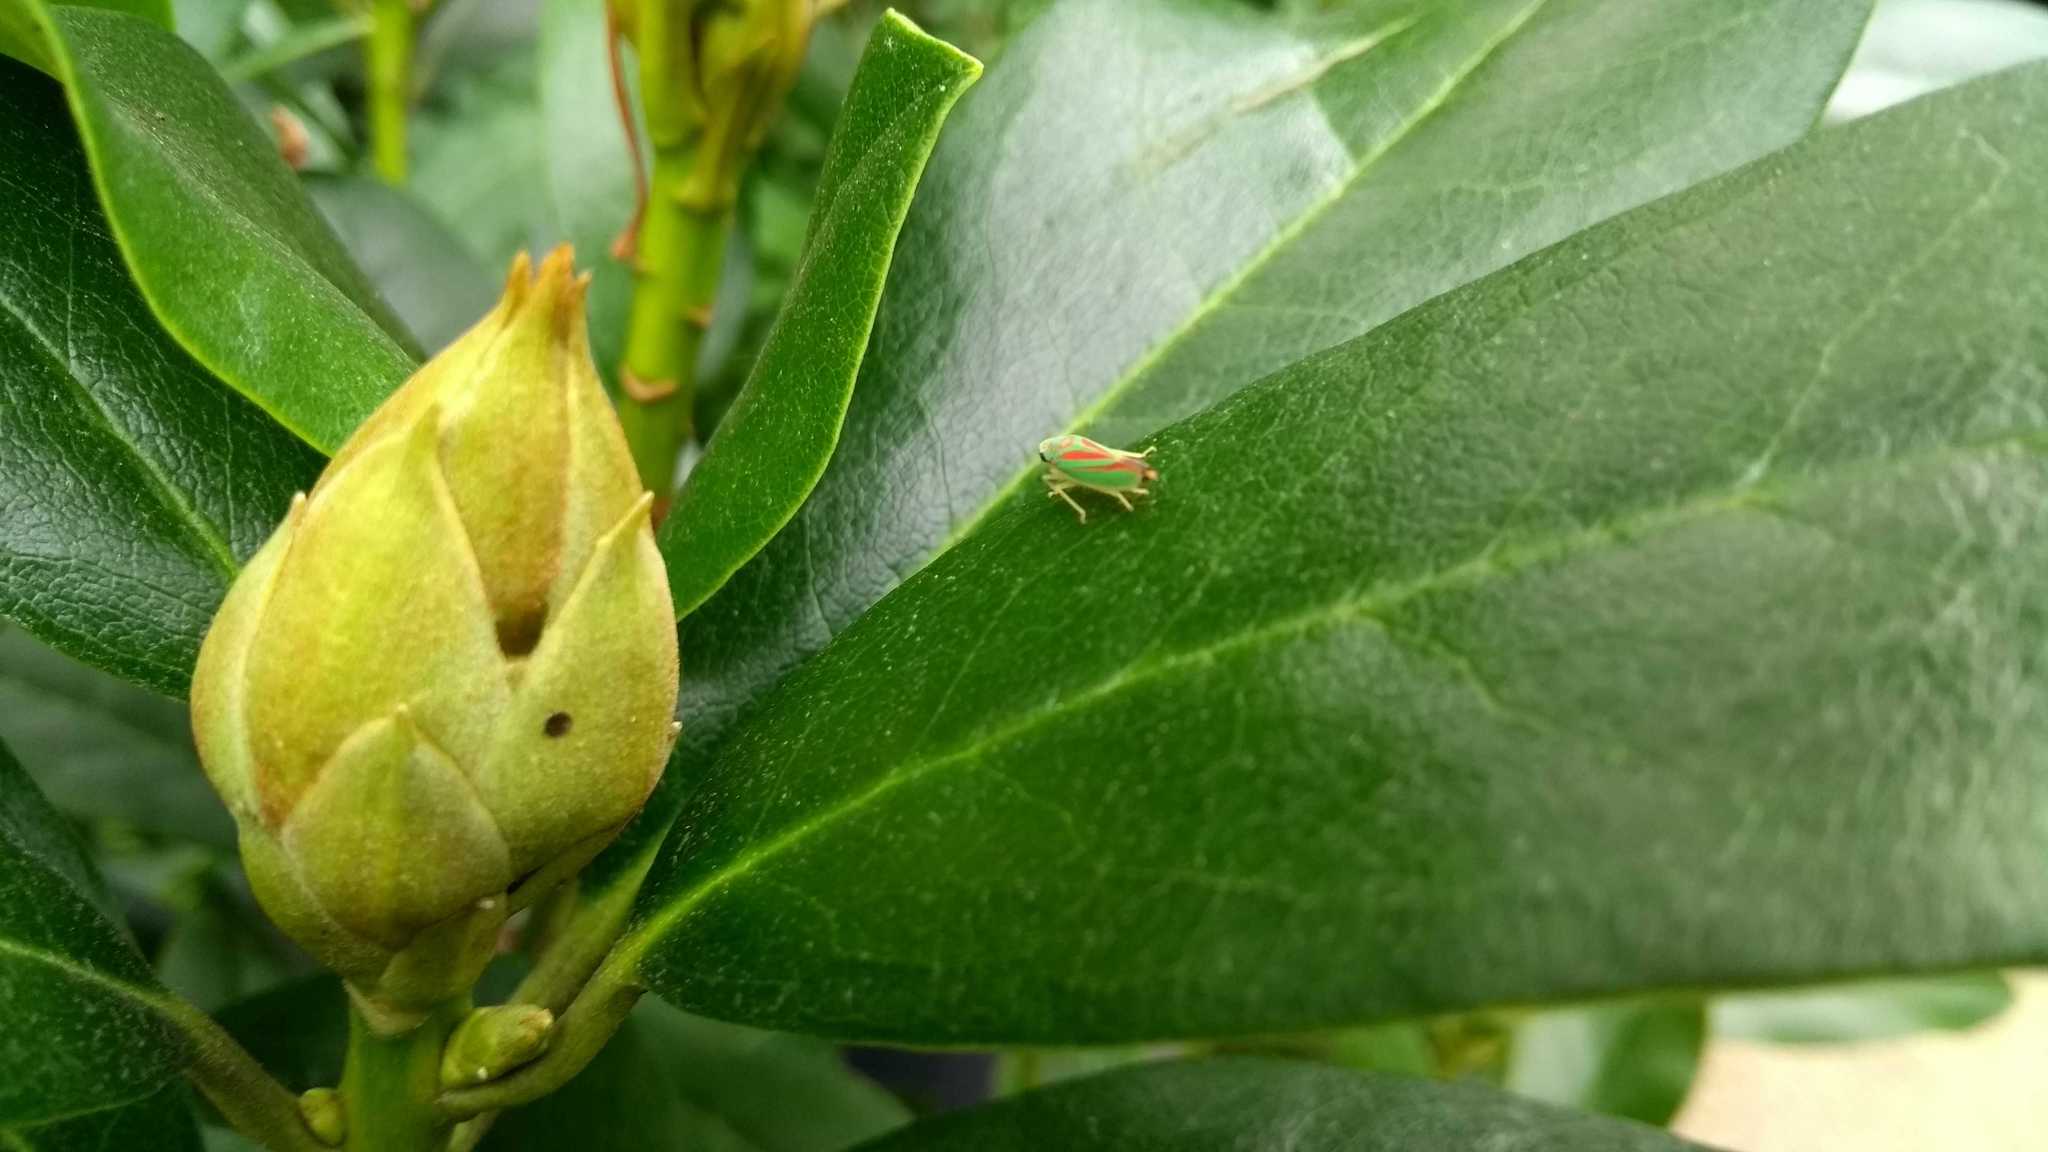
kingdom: Animalia
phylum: Arthropoda
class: Insecta
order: Hemiptera
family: Cicadellidae
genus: Graphocephala
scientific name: Graphocephala fennahi
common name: Rhododendron leafhopper
